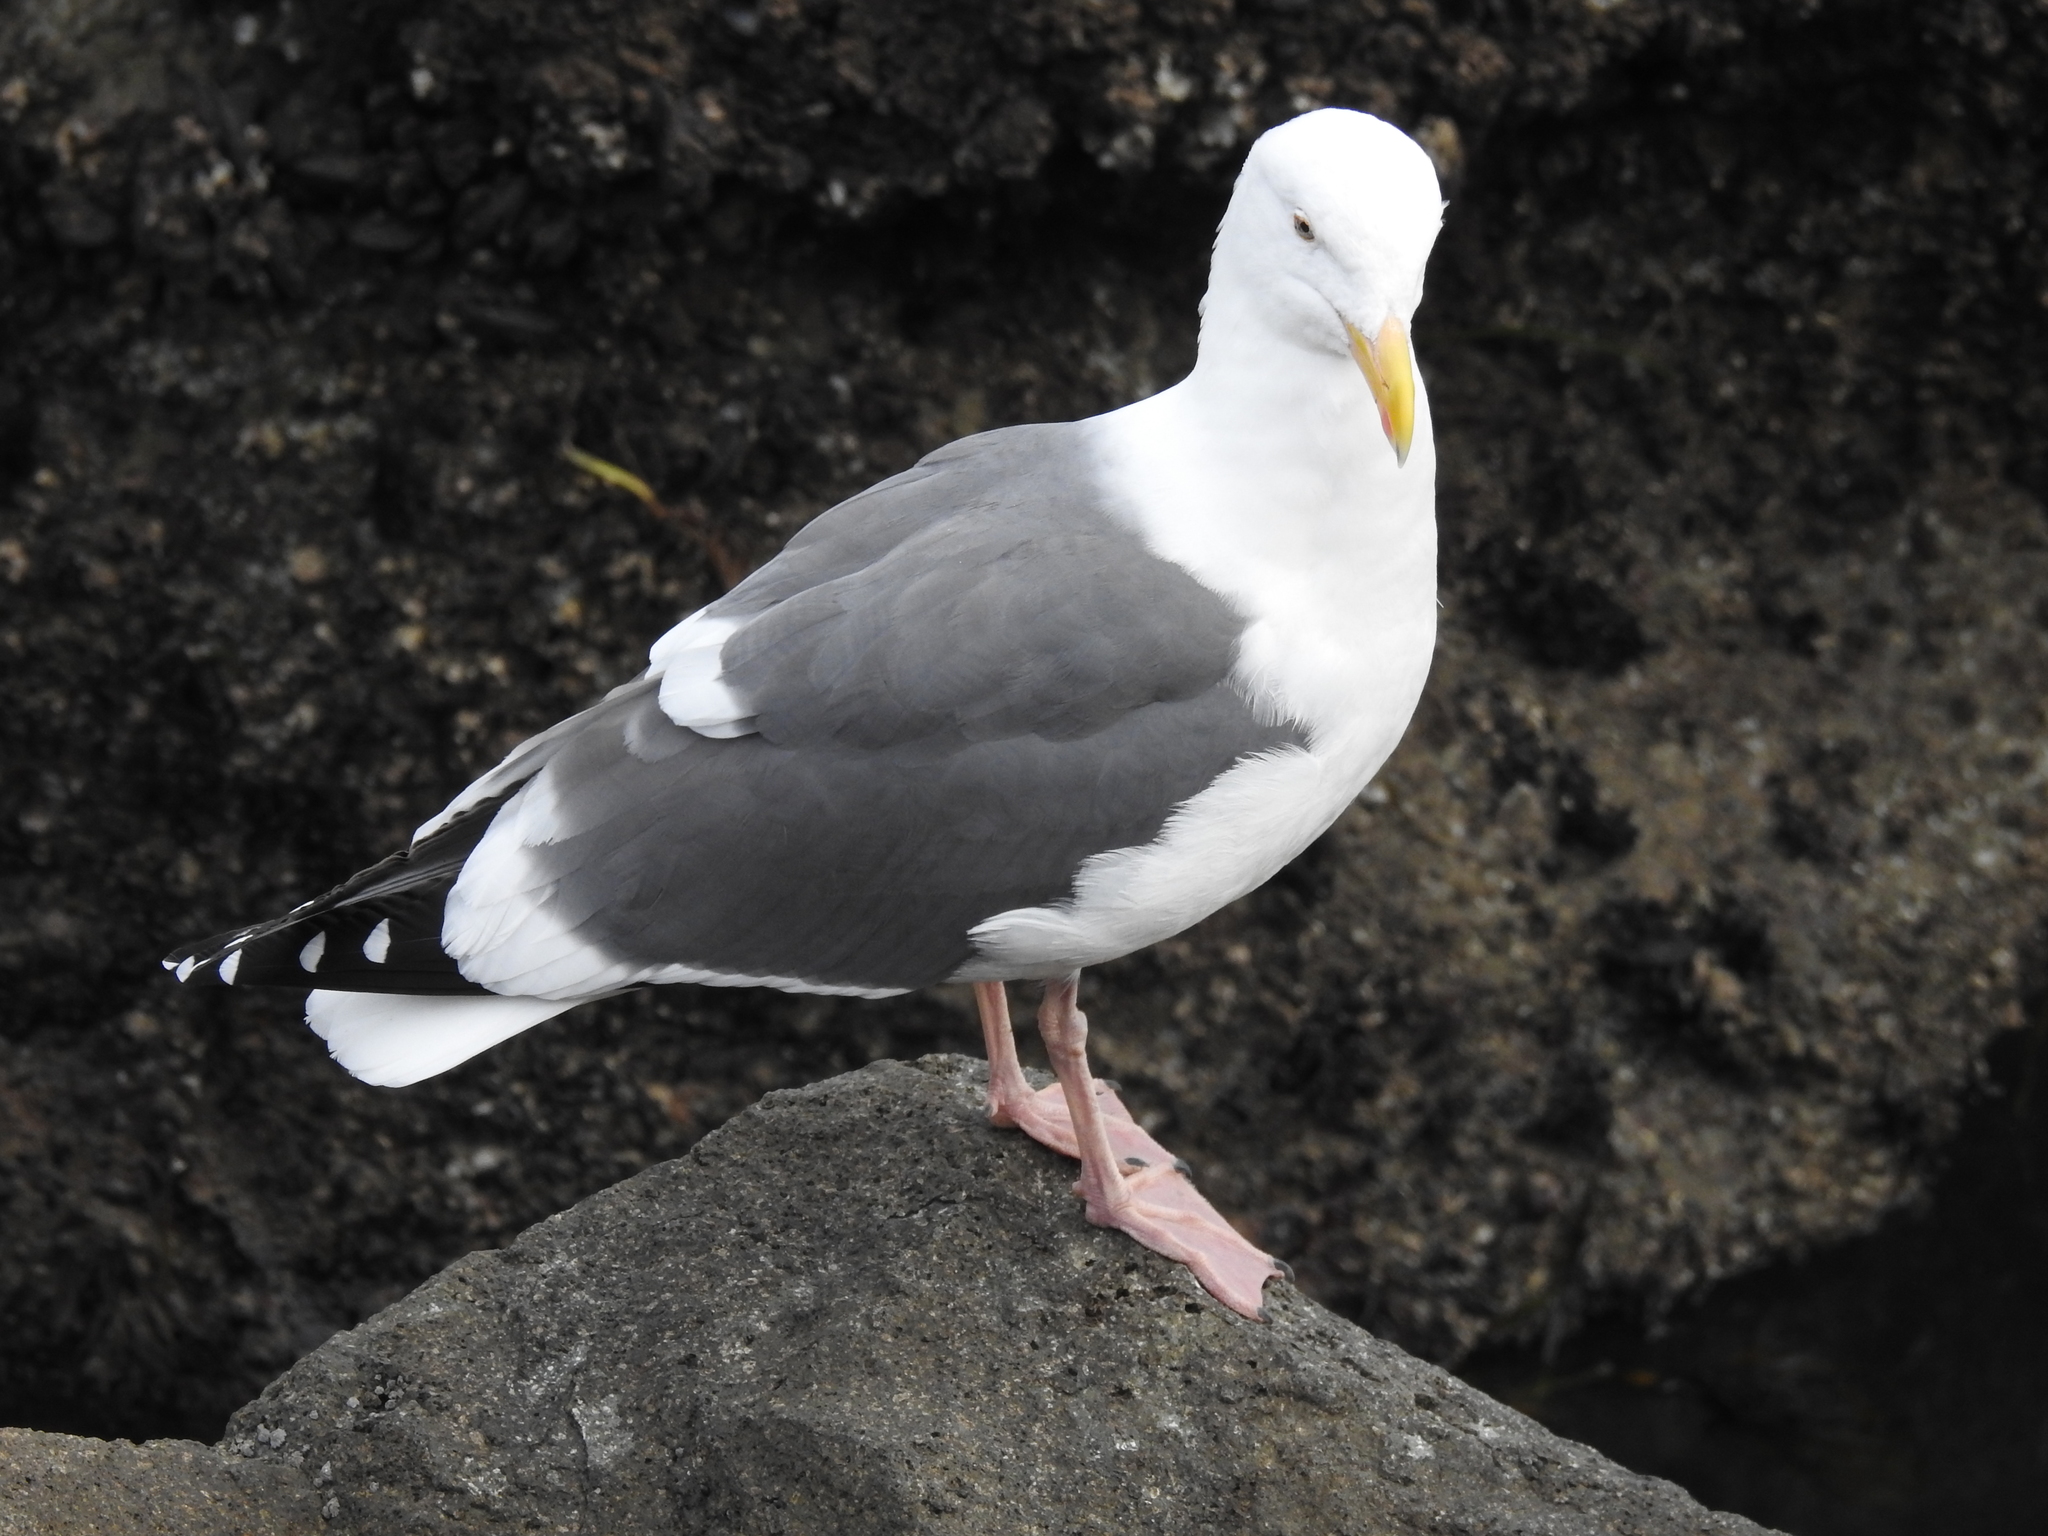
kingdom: Animalia
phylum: Chordata
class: Aves
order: Charadriiformes
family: Laridae
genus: Larus
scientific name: Larus occidentalis
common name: Western gull
